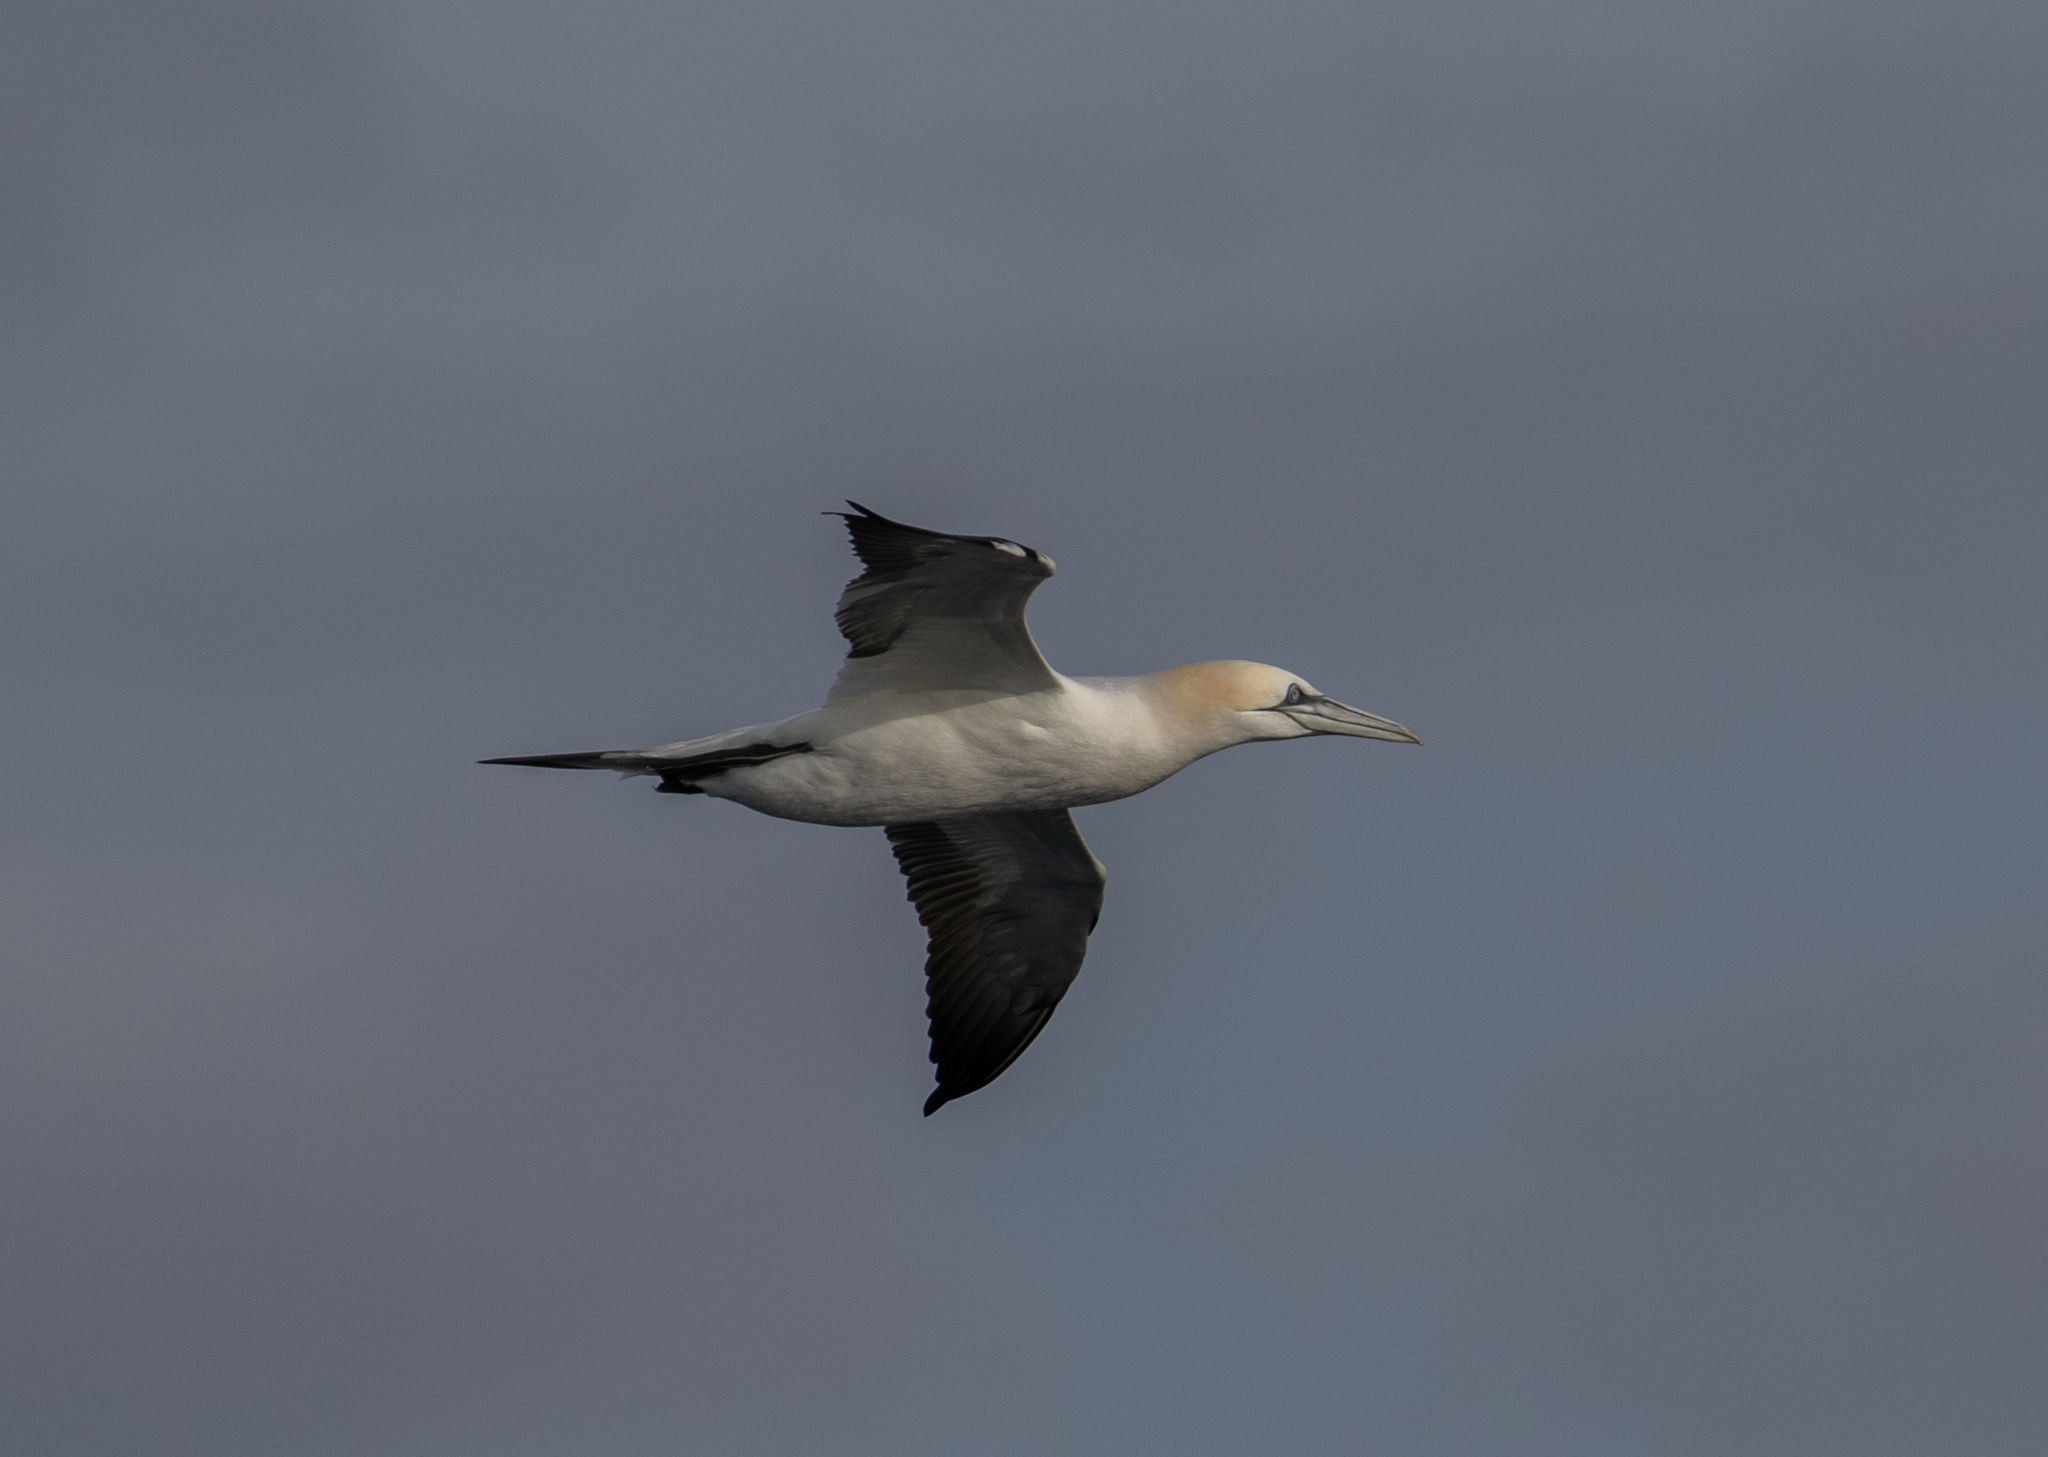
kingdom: Animalia
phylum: Chordata
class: Aves
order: Suliformes
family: Sulidae
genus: Morus
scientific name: Morus bassanus
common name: Northern gannet
